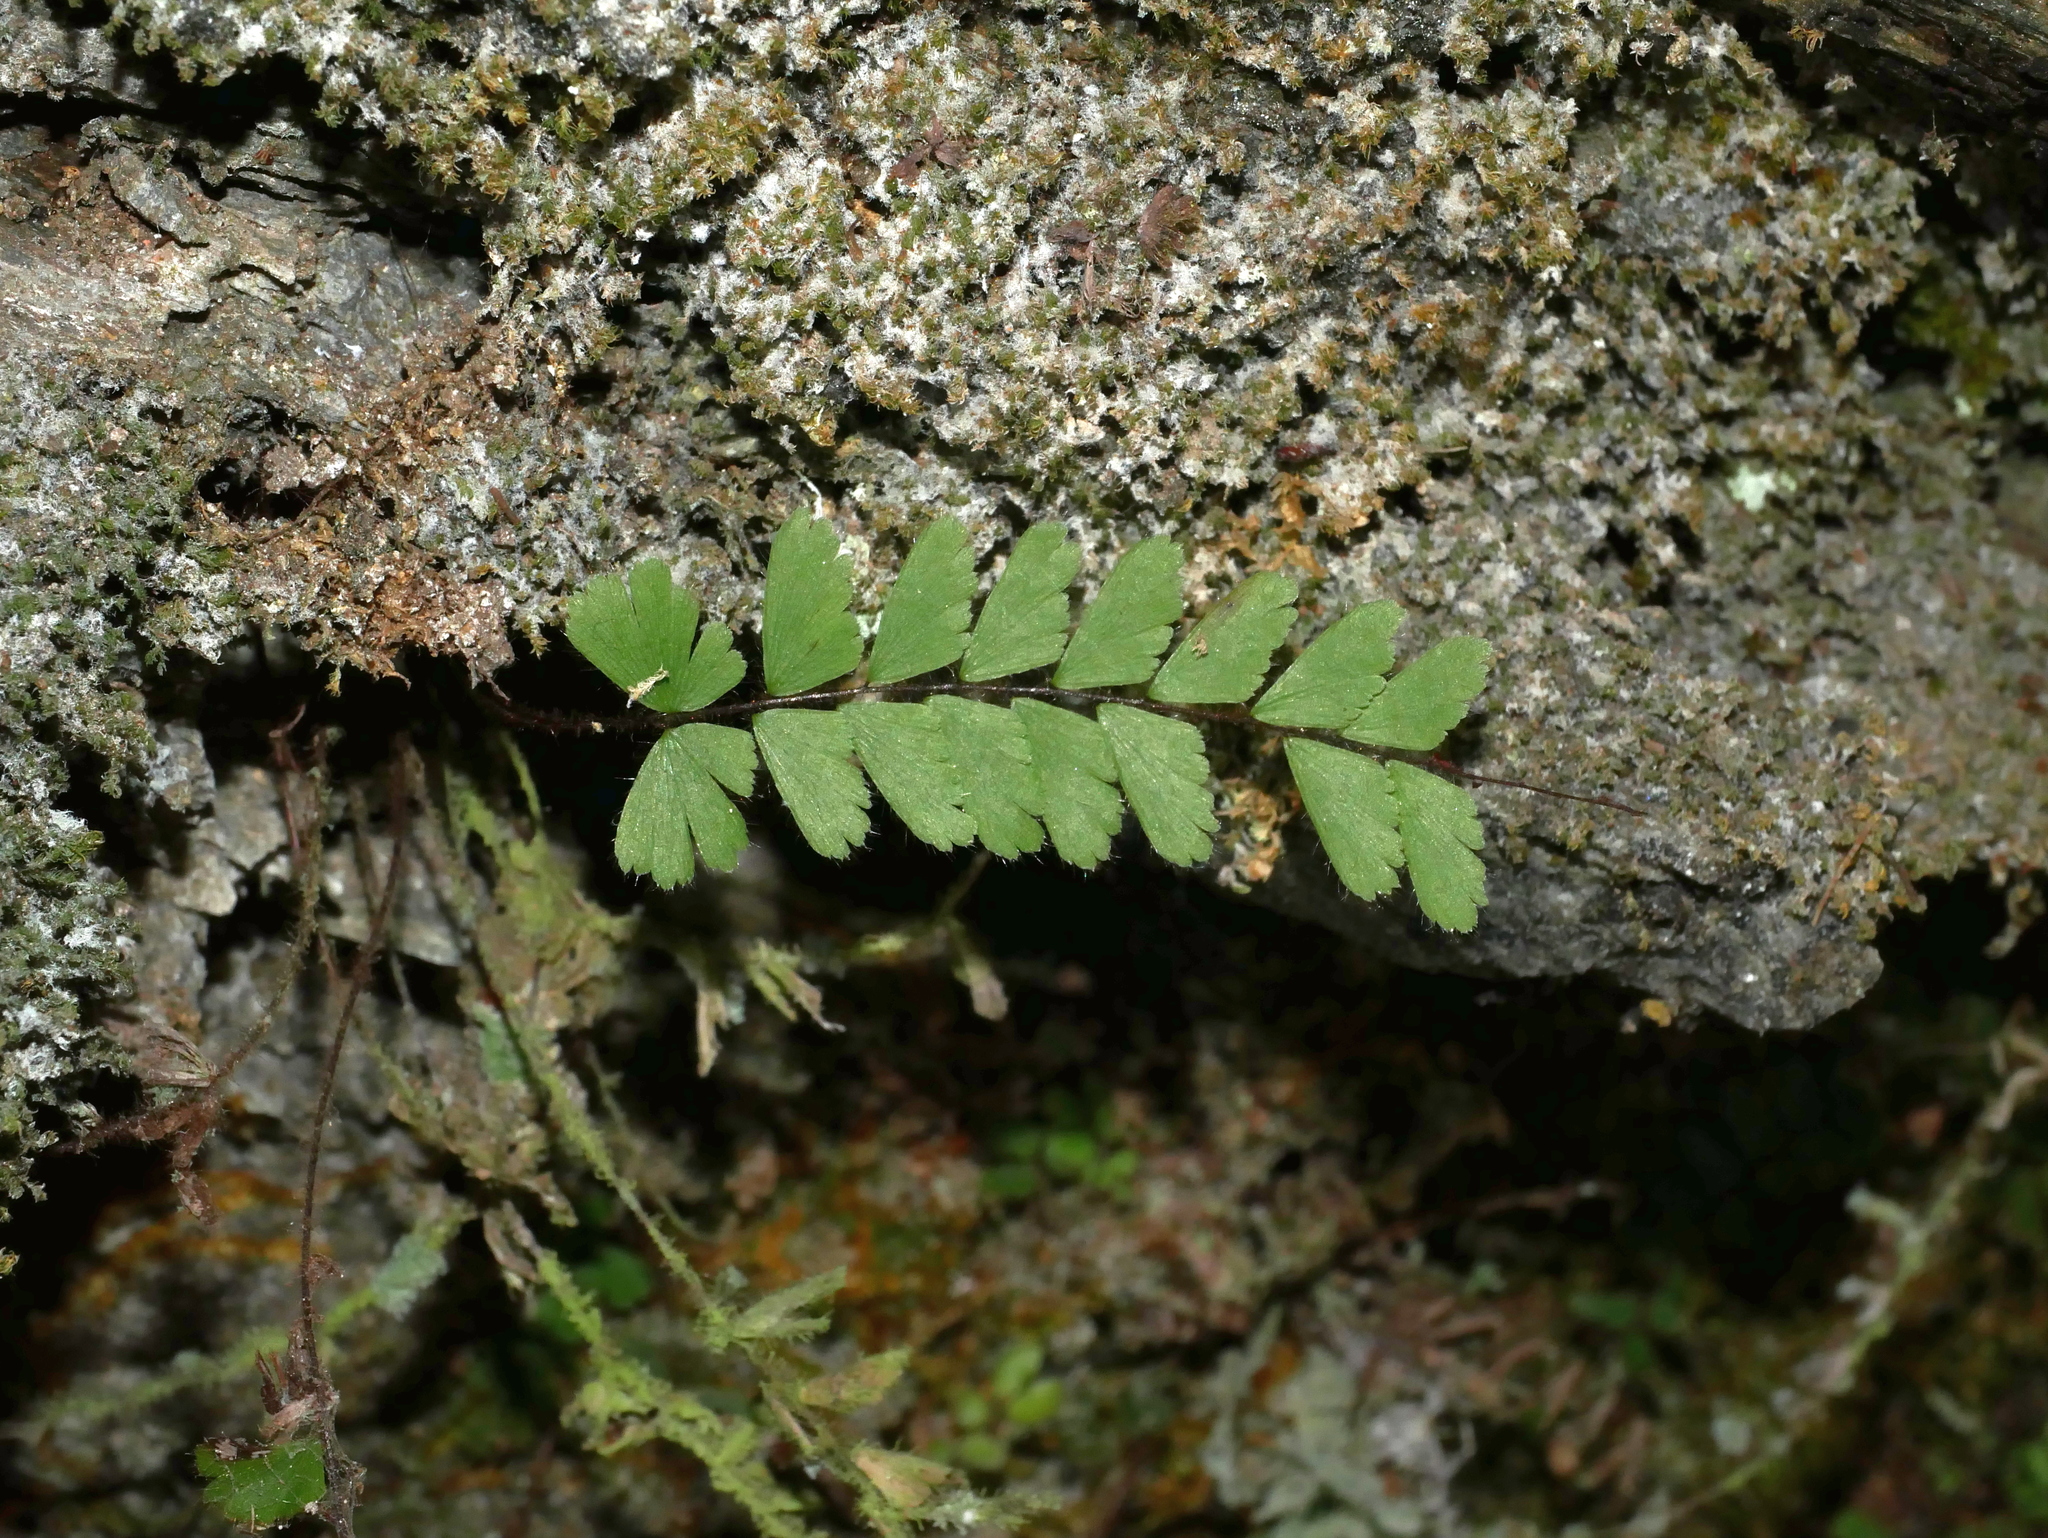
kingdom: Plantae
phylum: Tracheophyta
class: Polypodiopsida
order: Polypodiales
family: Pteridaceae
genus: Adiantum
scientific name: Adiantum caudatum
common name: Tailed maidenhair
